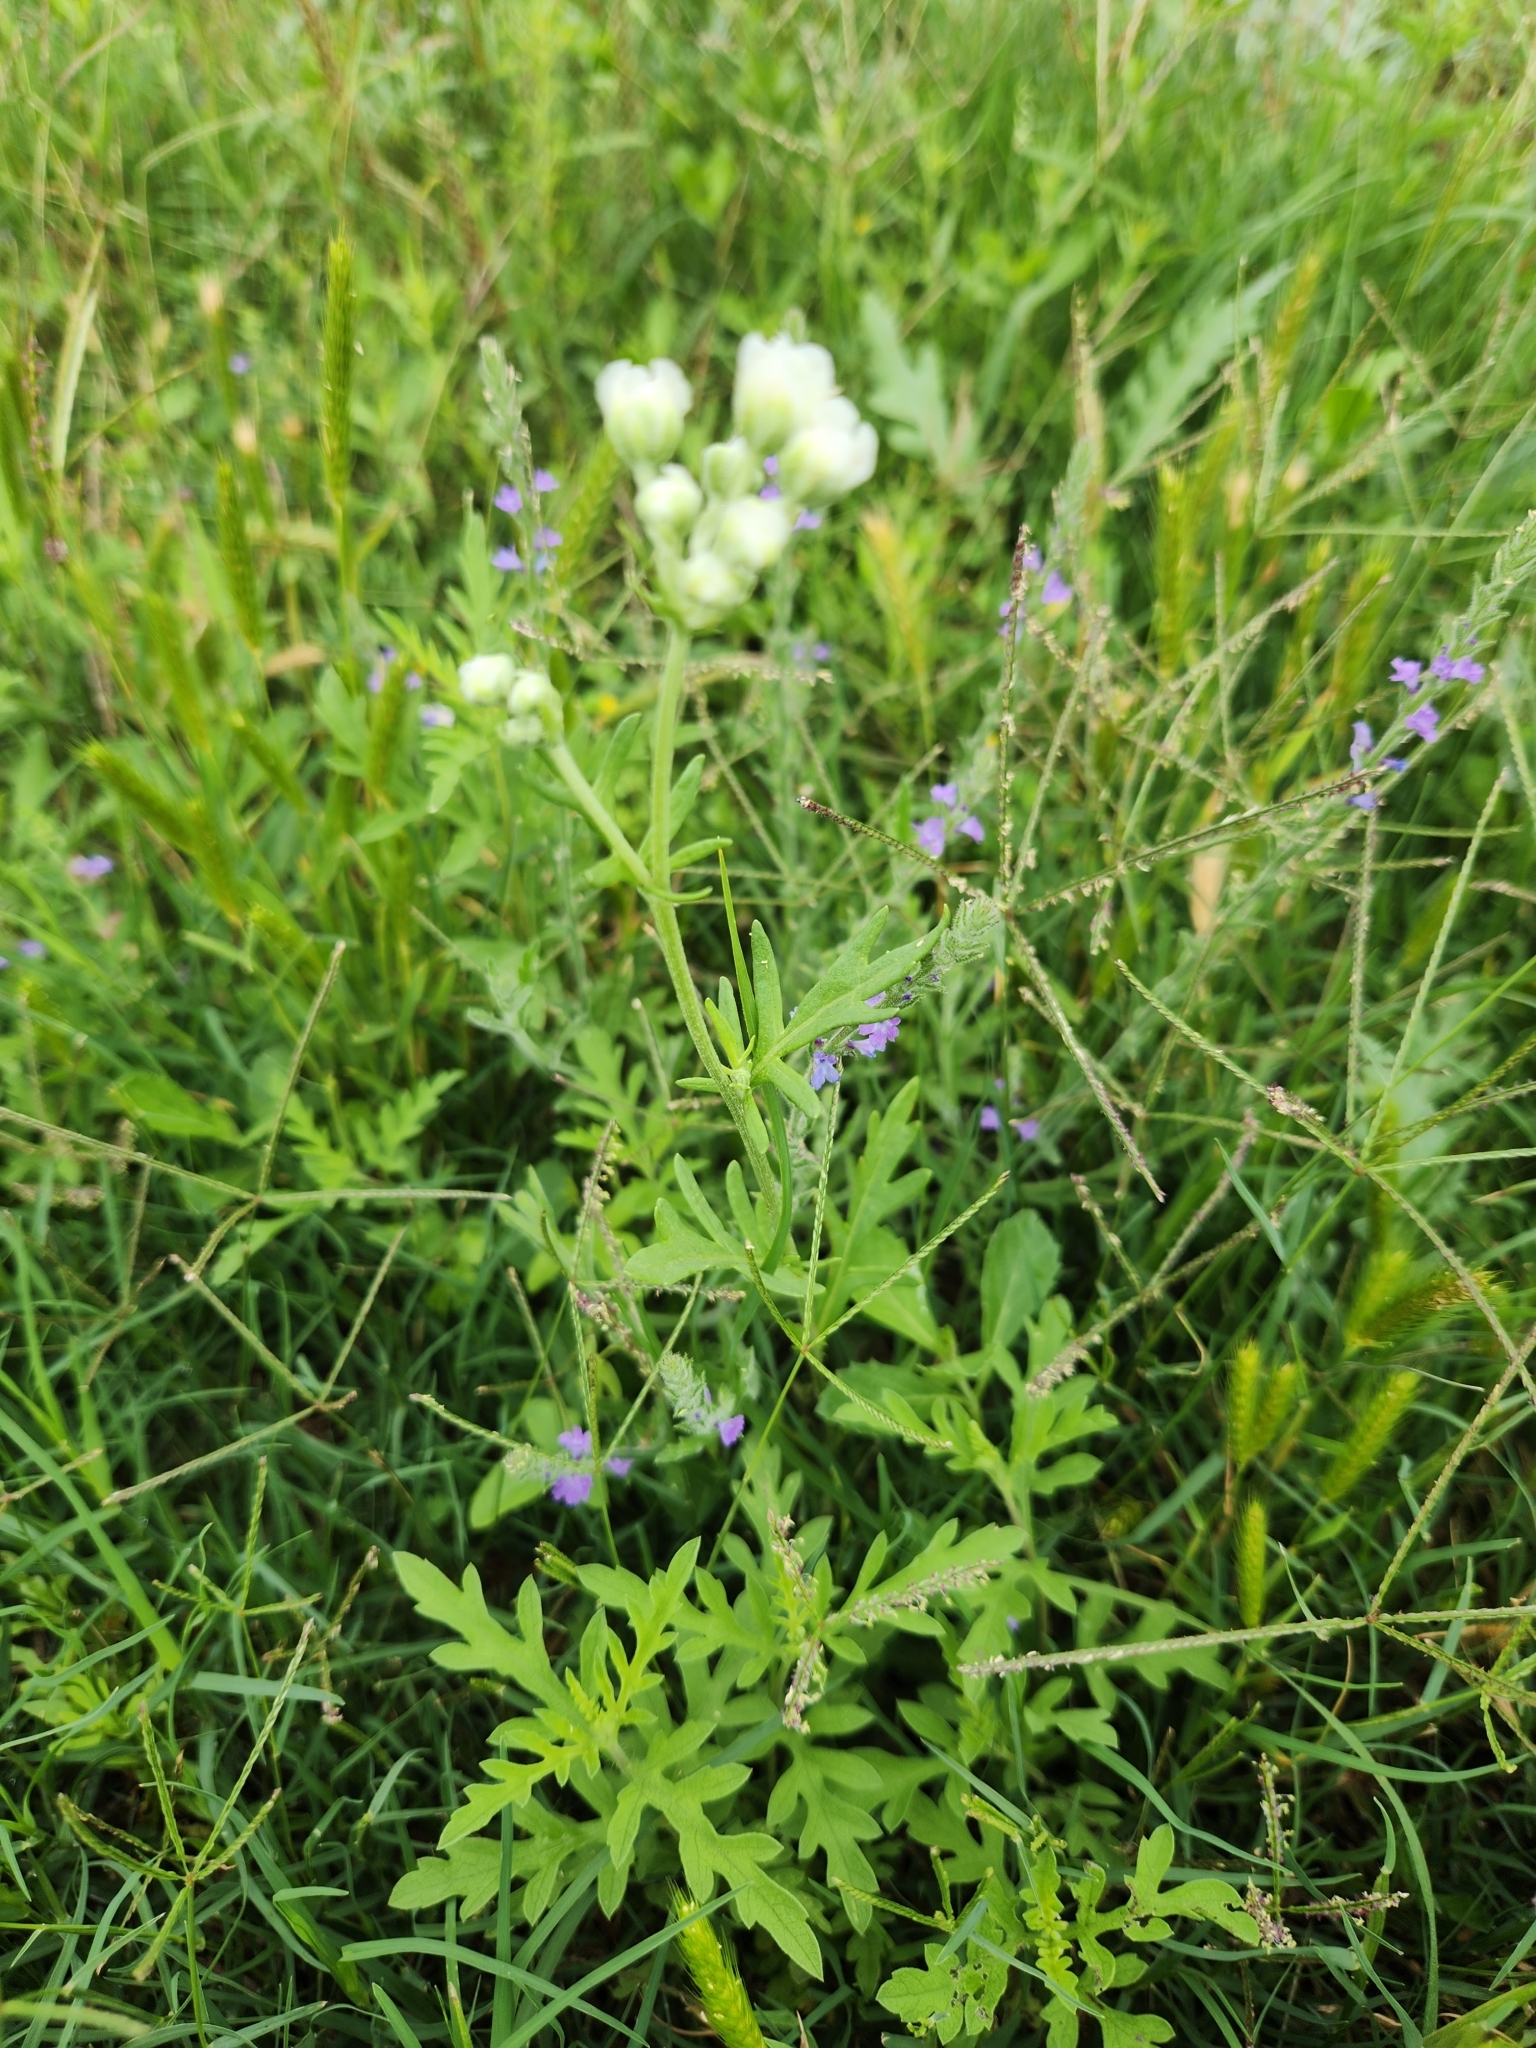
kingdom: Plantae
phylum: Tracheophyta
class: Magnoliopsida
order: Asterales
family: Asteraceae
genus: Hymenopappus
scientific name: Hymenopappus scabiosaeus
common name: Carolina woollywhite
